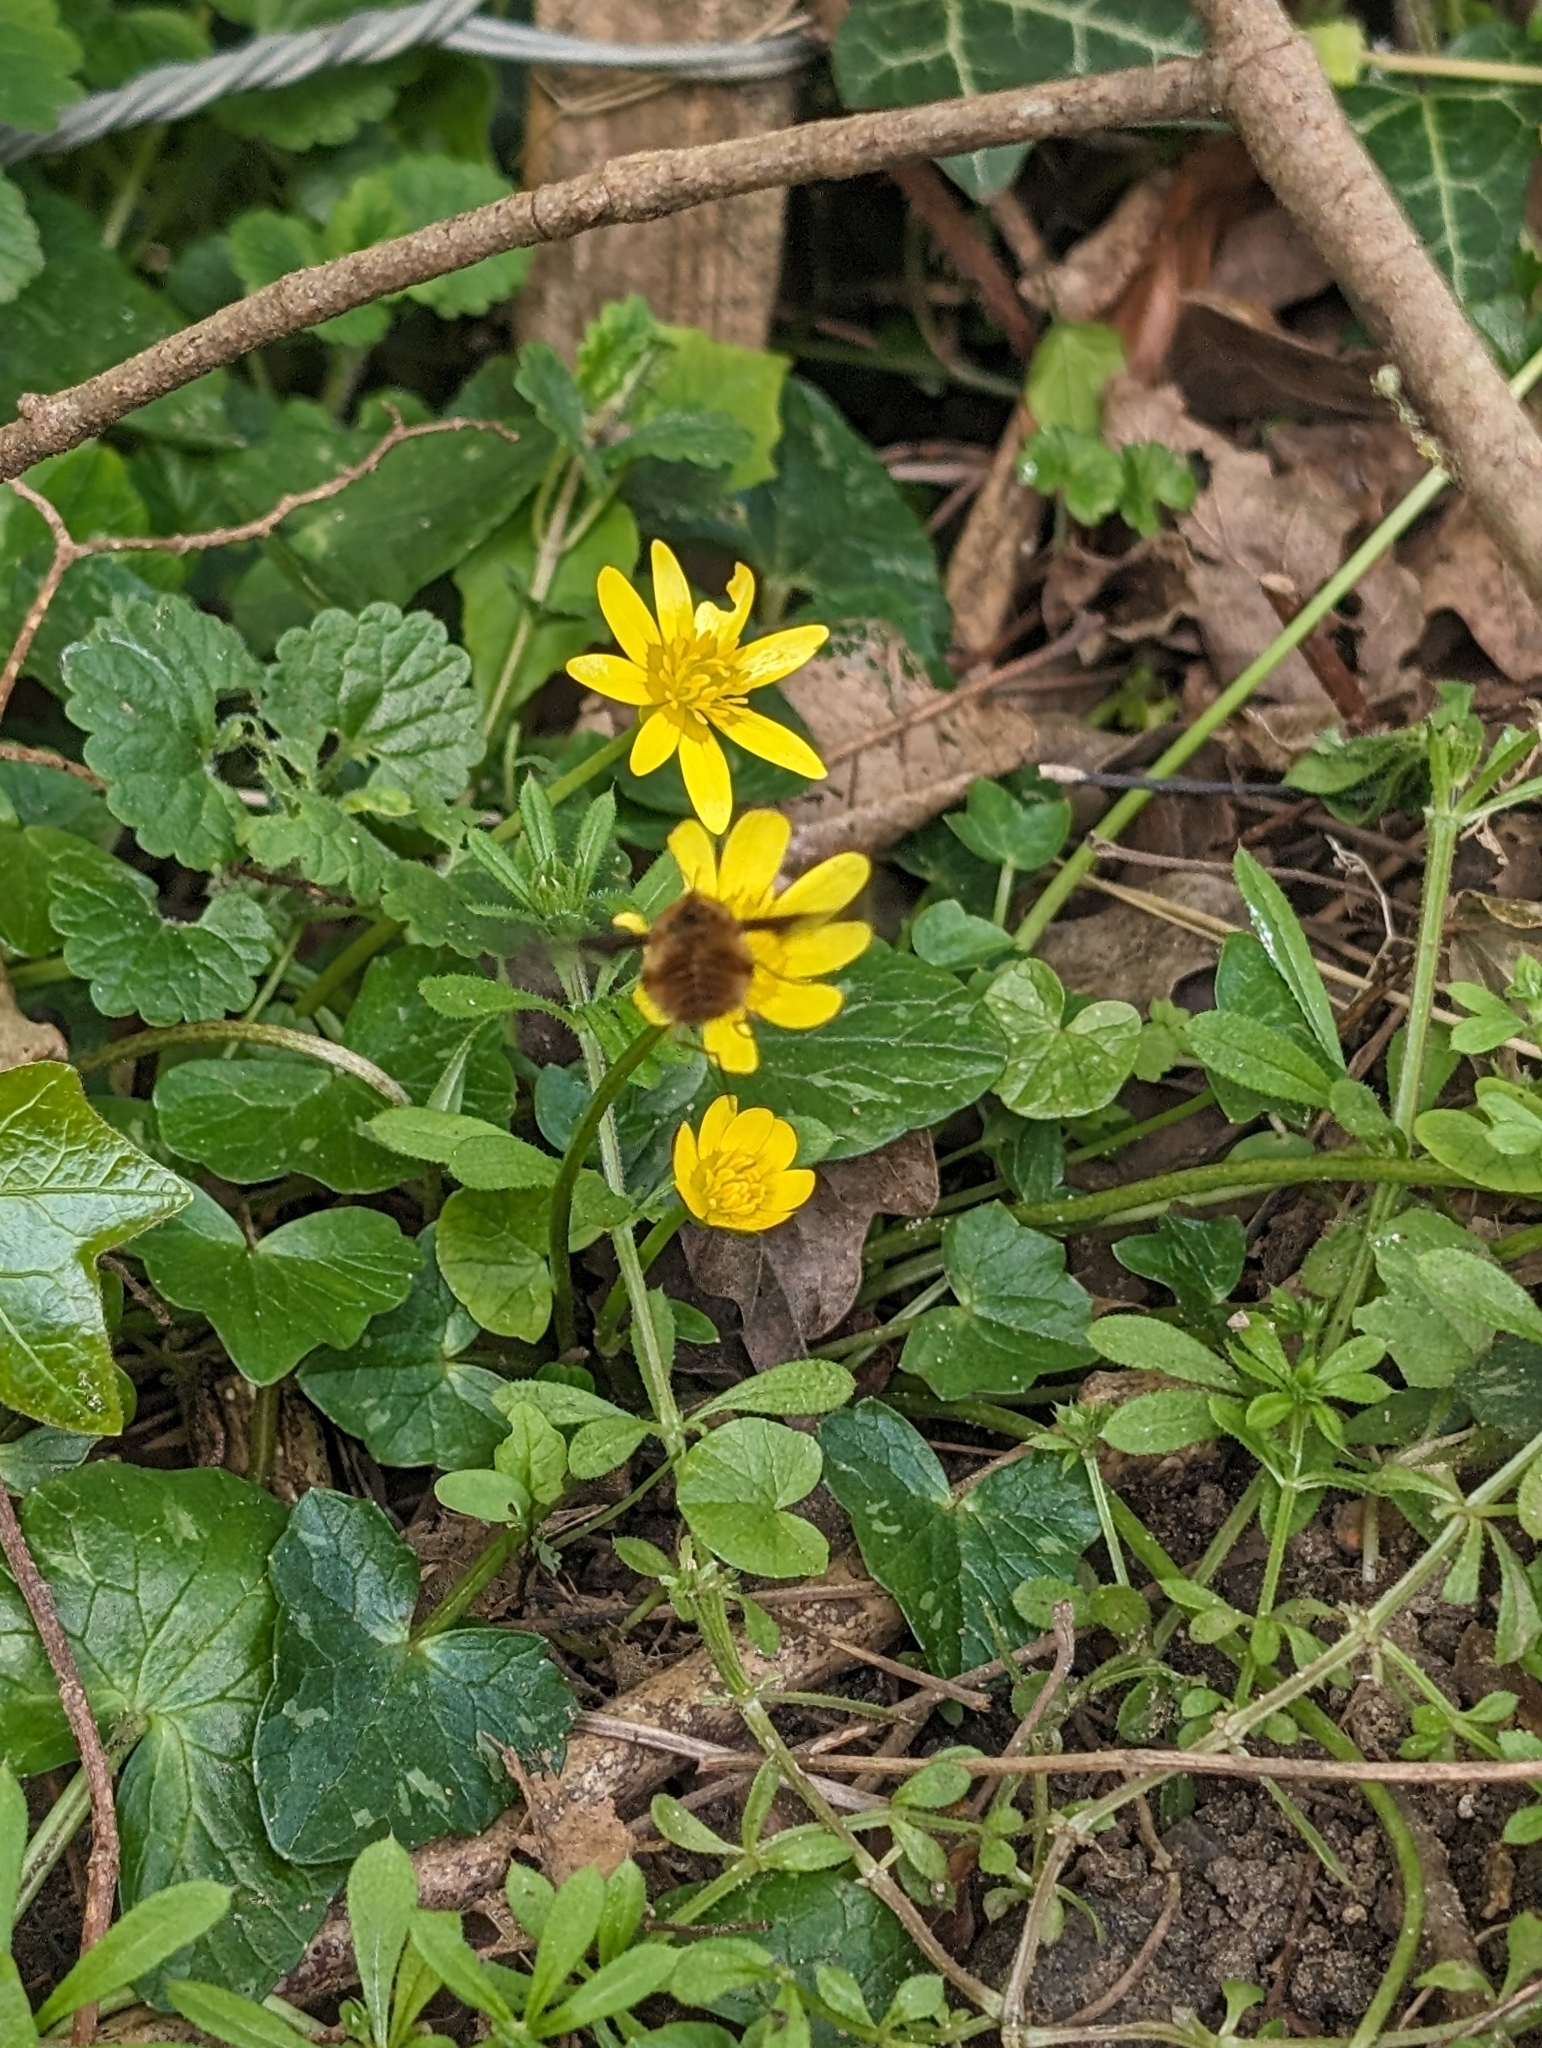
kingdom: Animalia
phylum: Arthropoda
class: Insecta
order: Diptera
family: Bombyliidae
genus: Bombylius
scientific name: Bombylius major
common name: Bee fly
